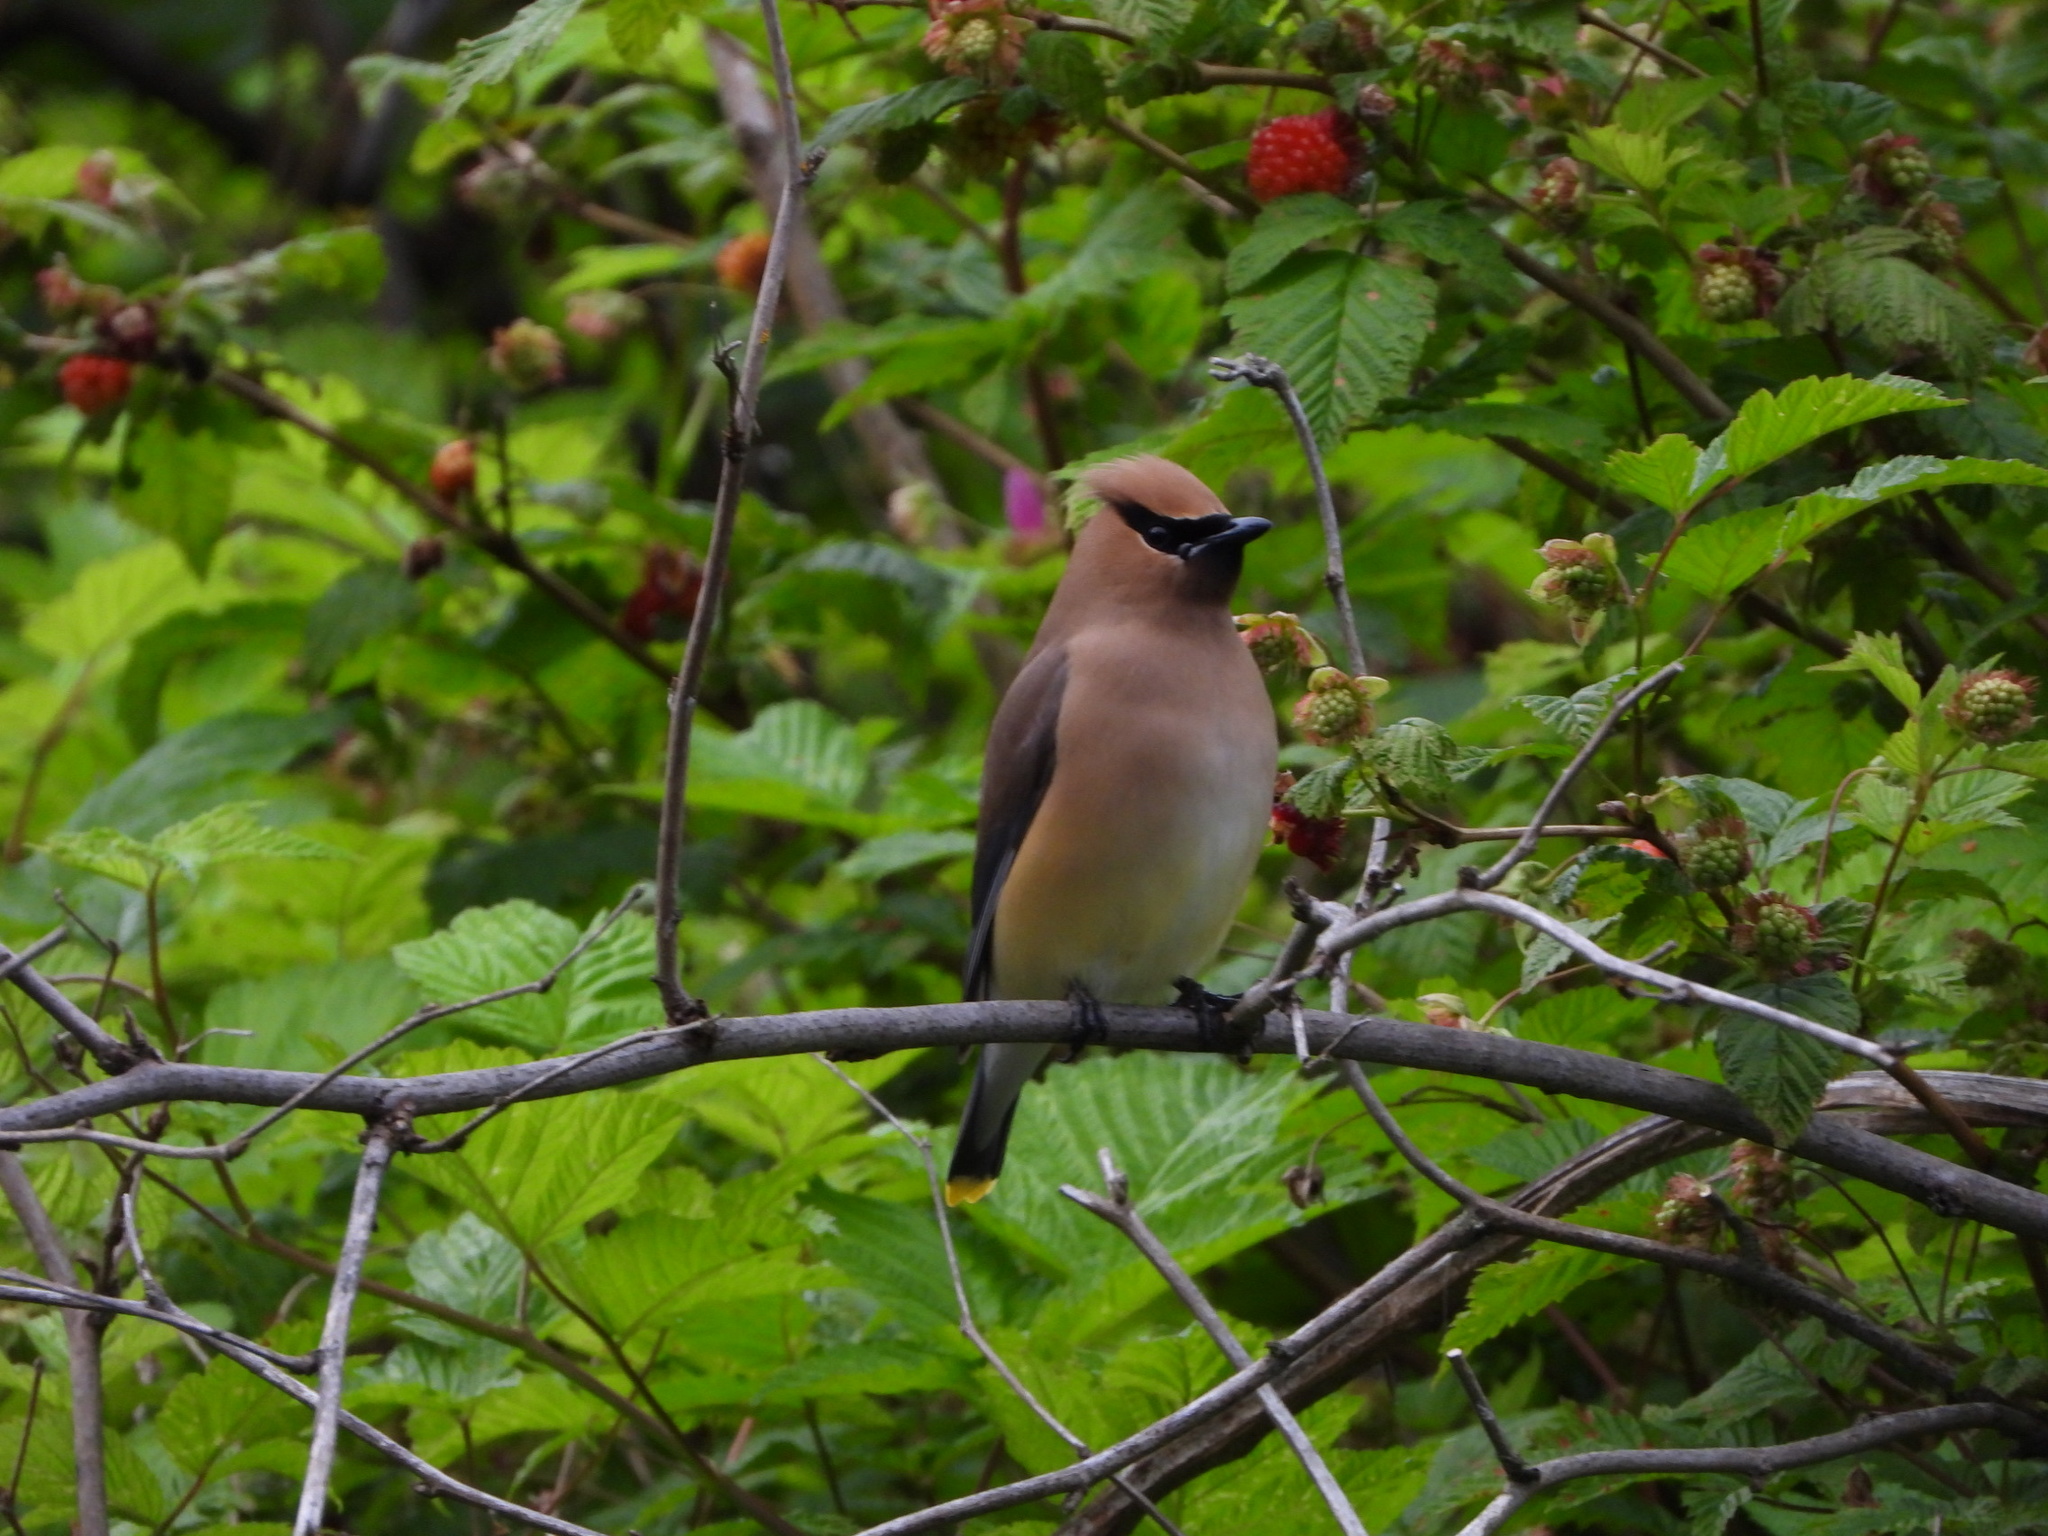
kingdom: Animalia
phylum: Chordata
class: Aves
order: Passeriformes
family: Bombycillidae
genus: Bombycilla
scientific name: Bombycilla cedrorum
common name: Cedar waxwing
